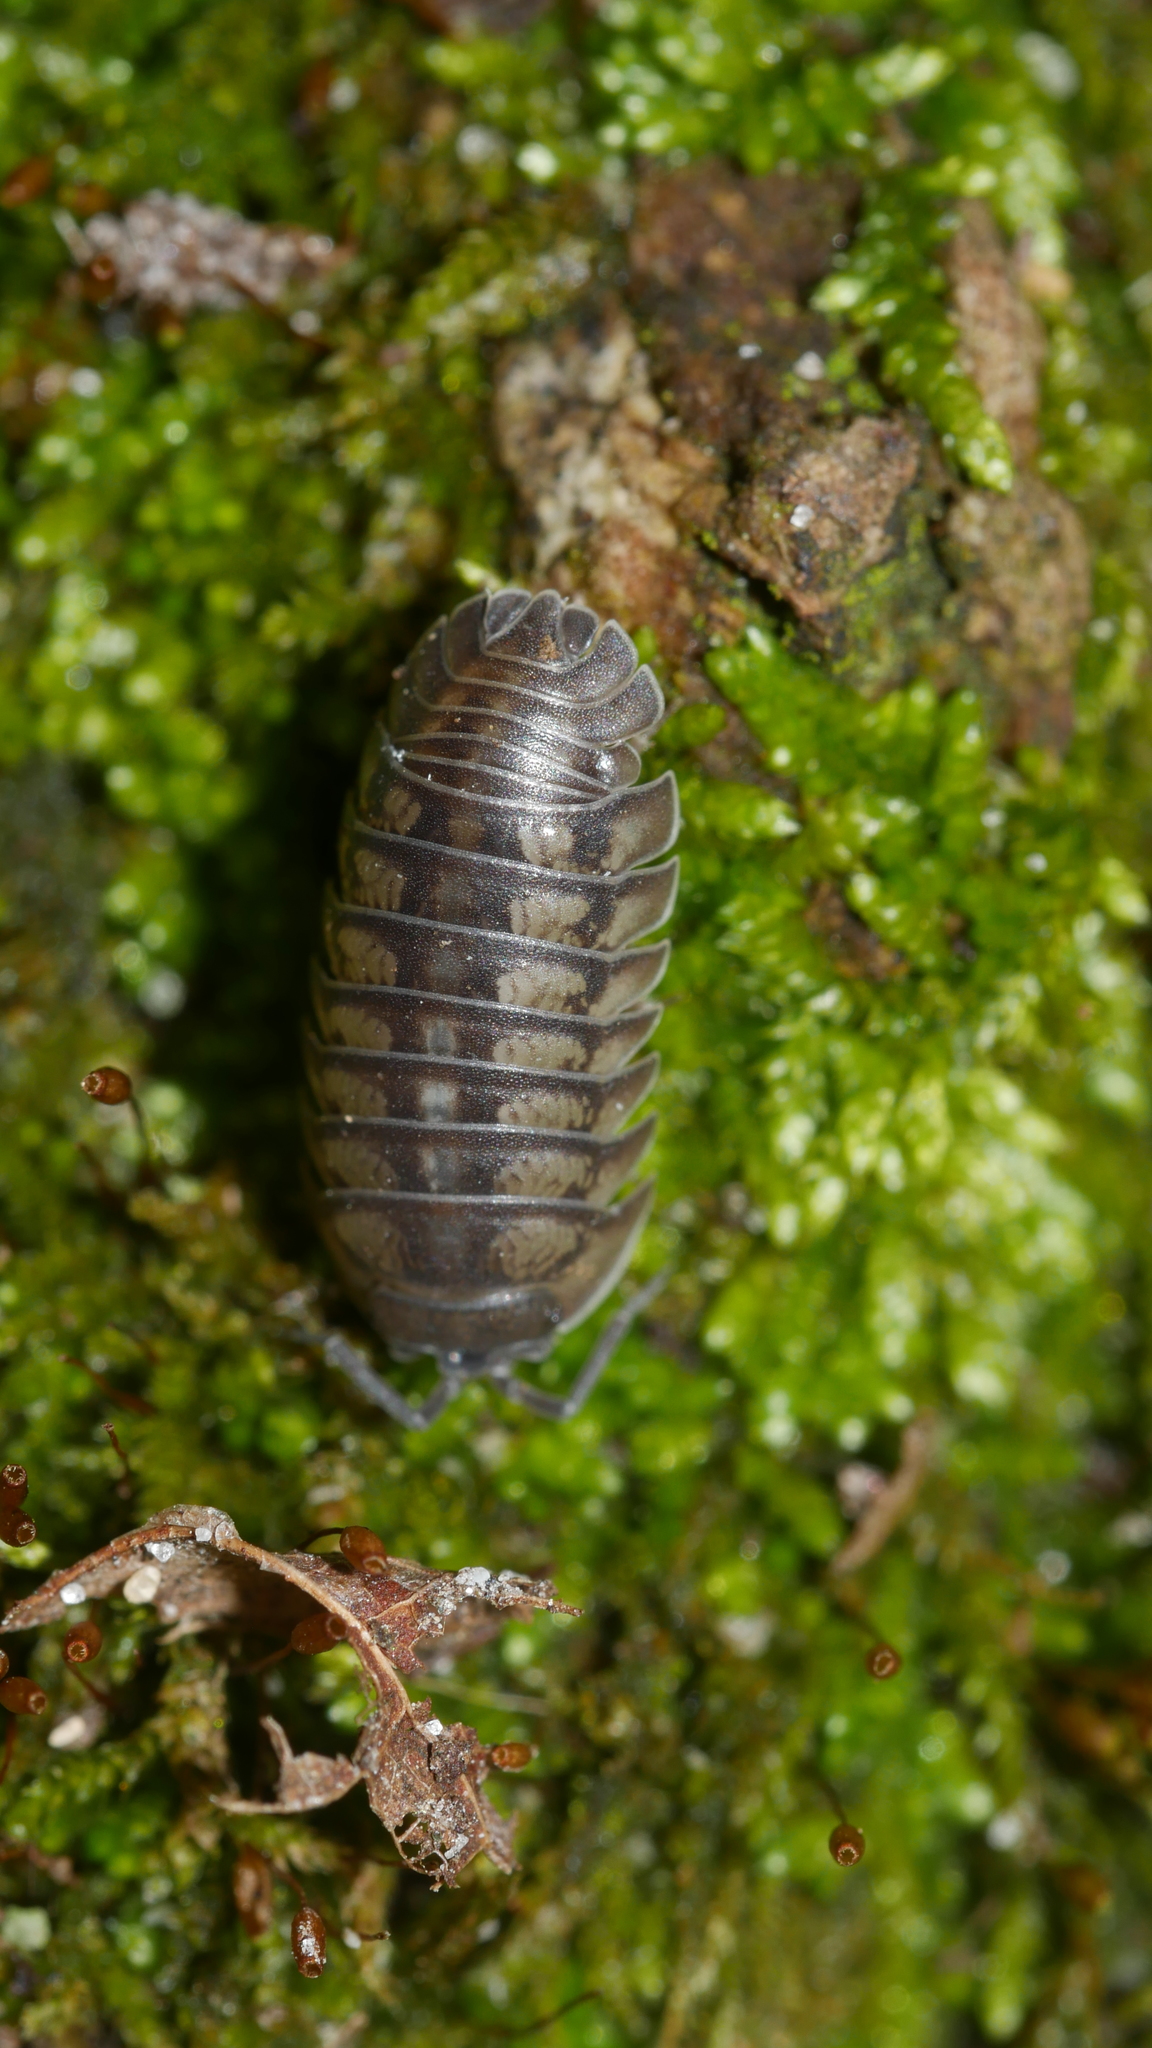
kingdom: Animalia
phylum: Arthropoda
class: Malacostraca
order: Isopoda
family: Armadillidiidae
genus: Armadillidium
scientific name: Armadillidium nasatum
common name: Isopod
